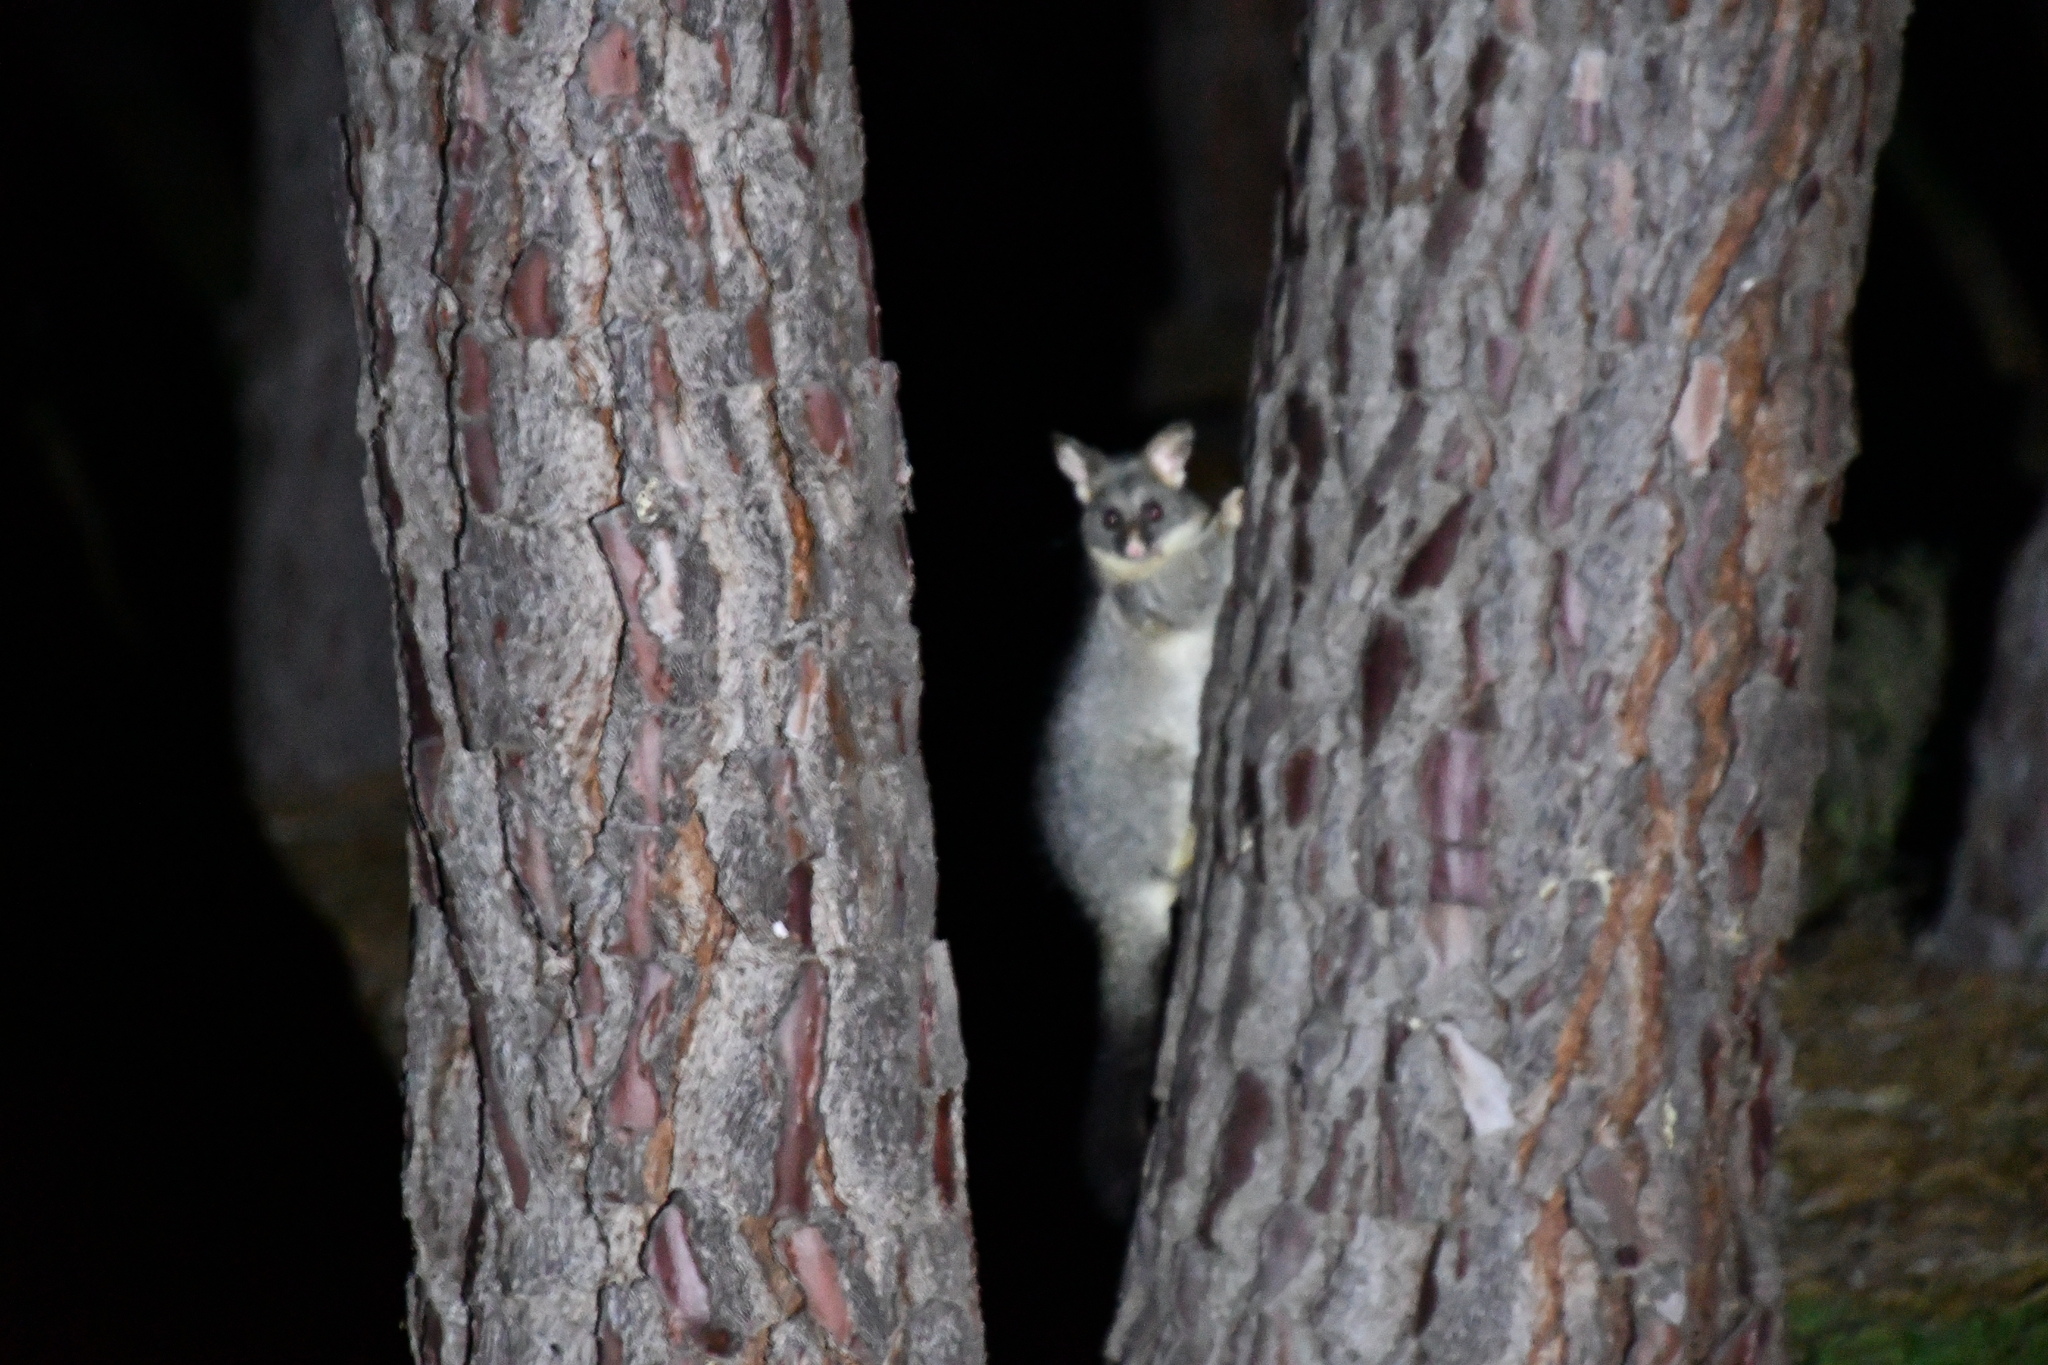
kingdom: Animalia
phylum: Chordata
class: Mammalia
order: Diprotodontia
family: Phalangeridae
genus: Trichosurus
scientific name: Trichosurus vulpecula
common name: Common brushtail
